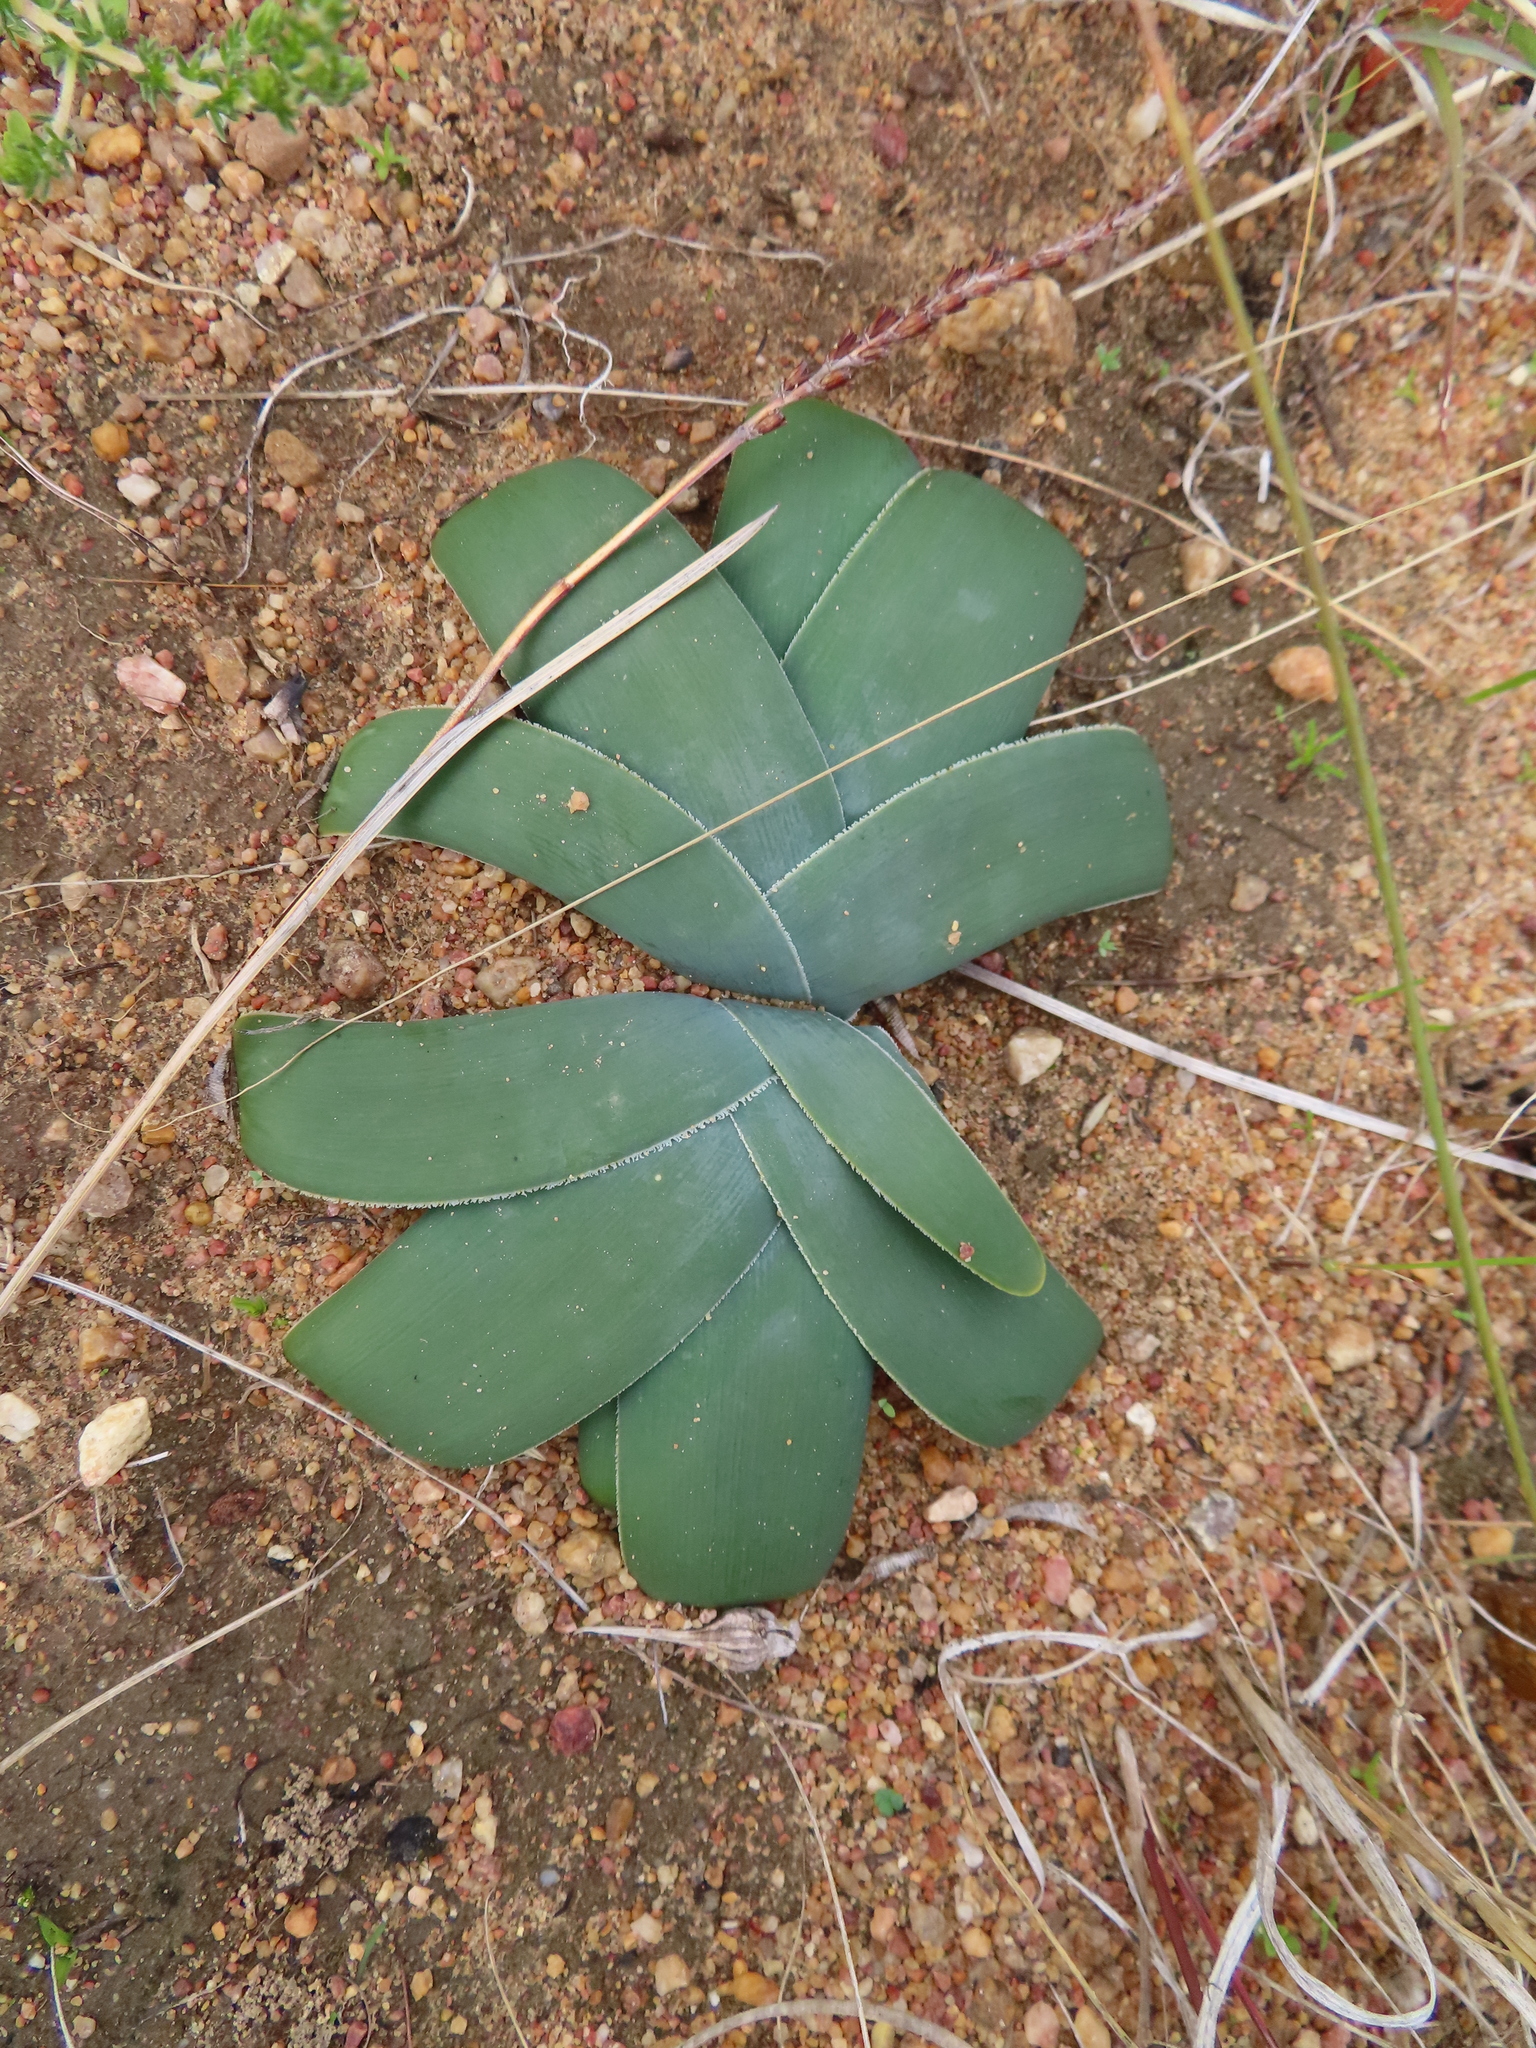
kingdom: Plantae
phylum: Tracheophyta
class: Liliopsida
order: Asparagales
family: Amaryllidaceae
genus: Ammocharis
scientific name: Ammocharis longifolia
